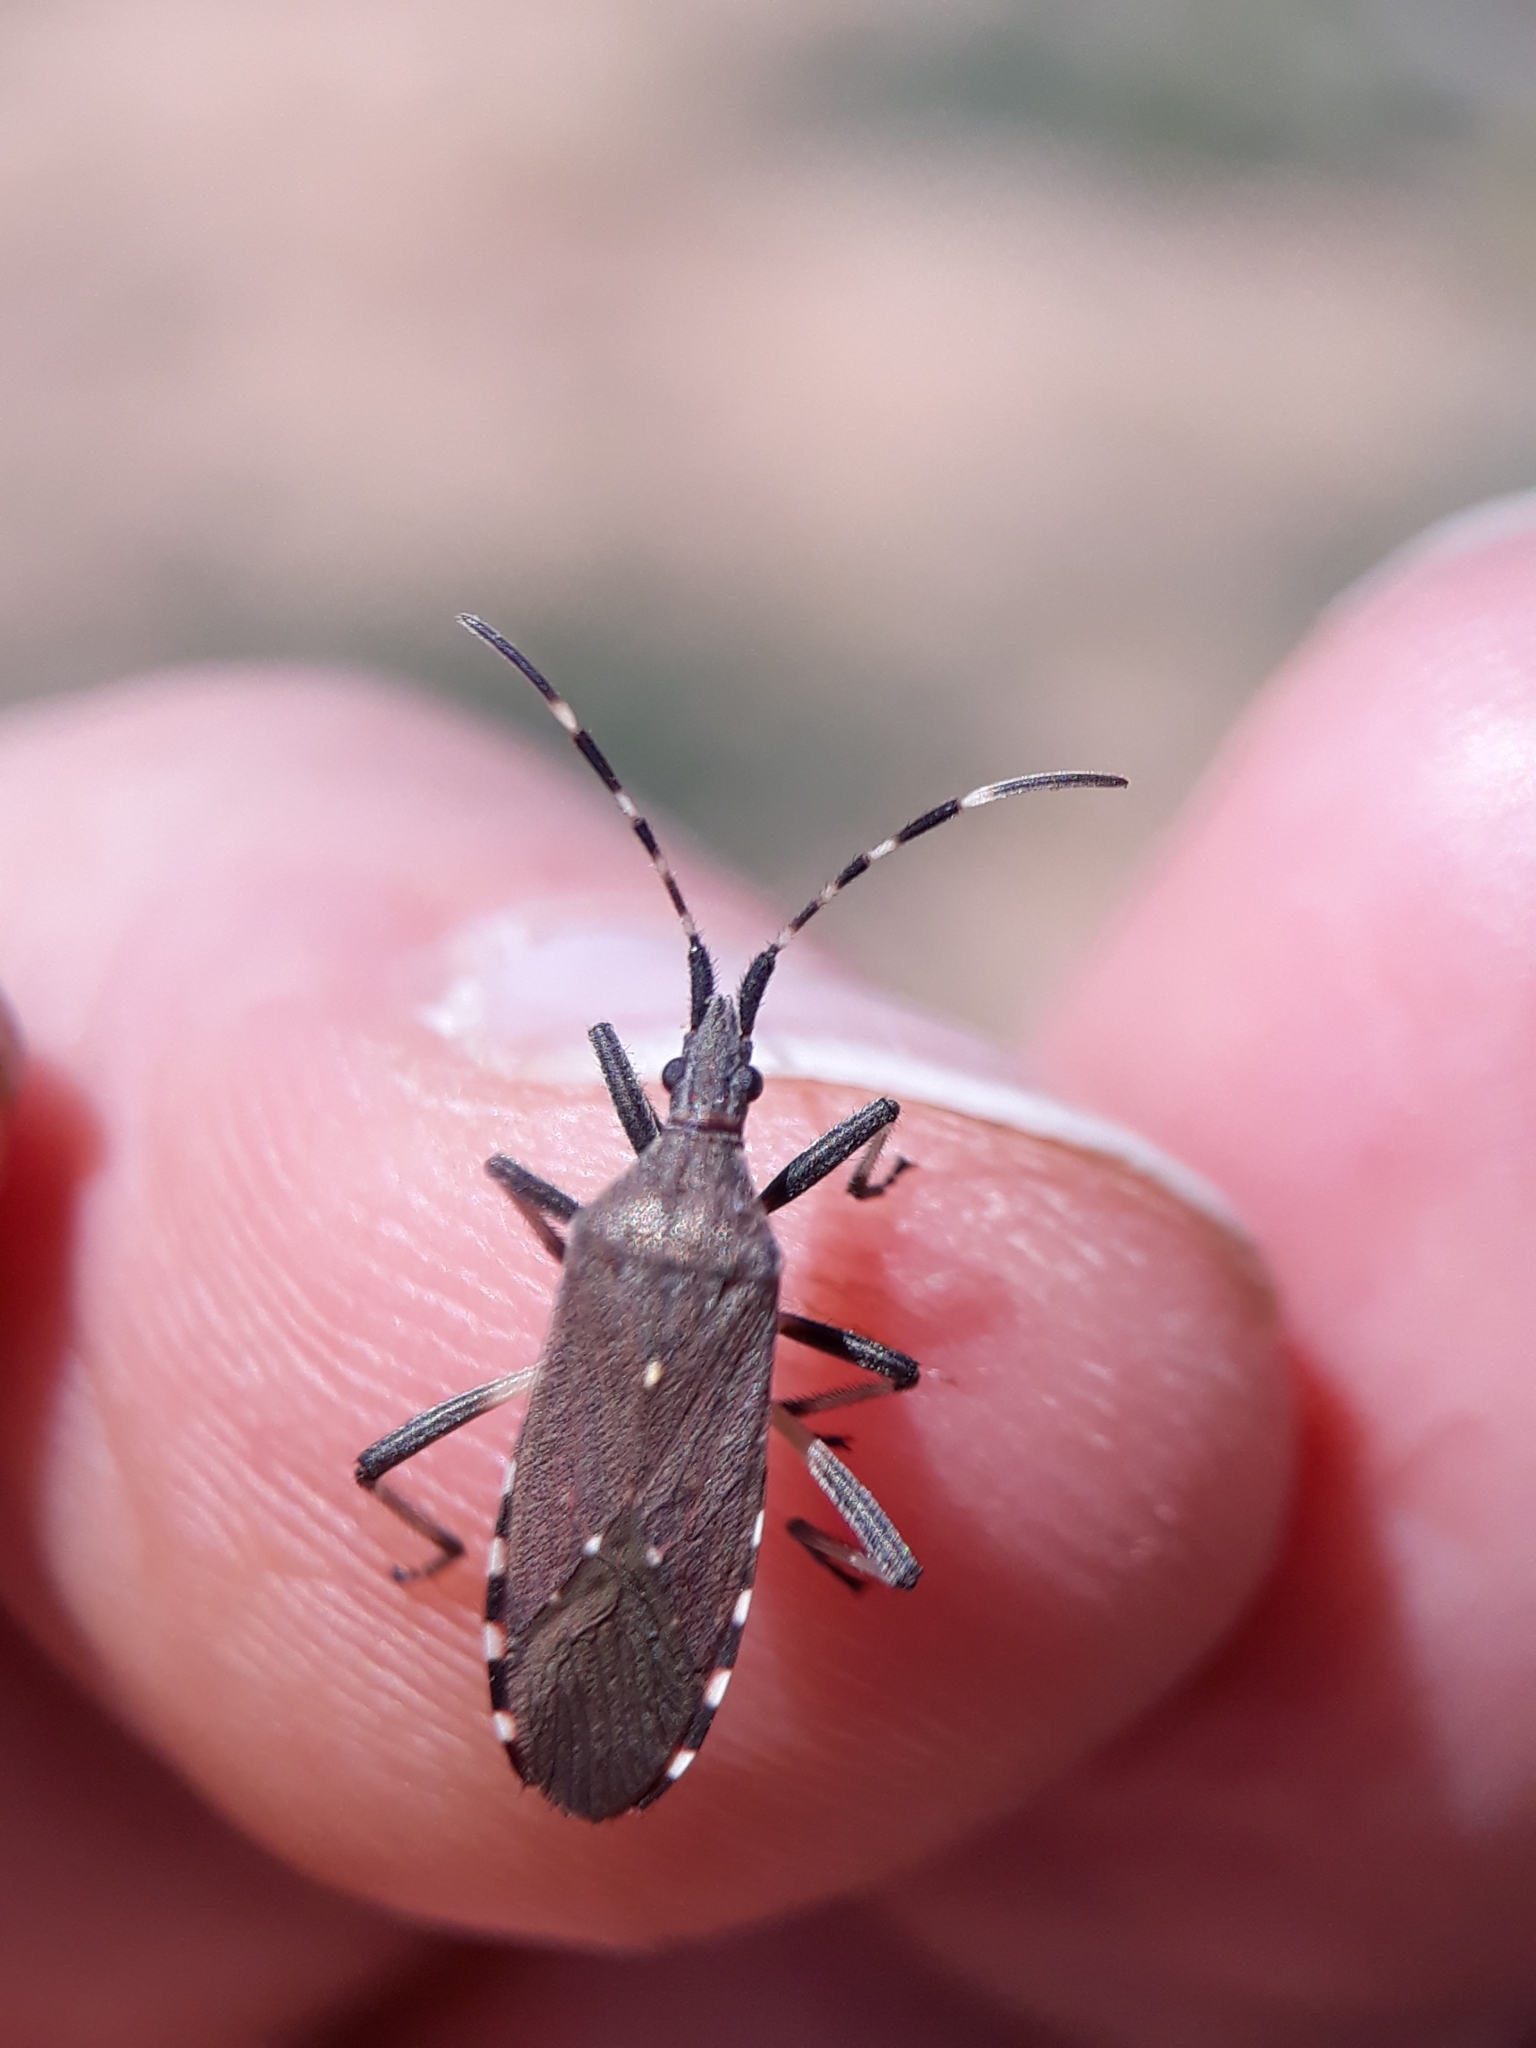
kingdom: Animalia
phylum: Arthropoda
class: Insecta
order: Hemiptera
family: Stenocephalidae
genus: Dicranocephalus
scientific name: Dicranocephalus agilis
